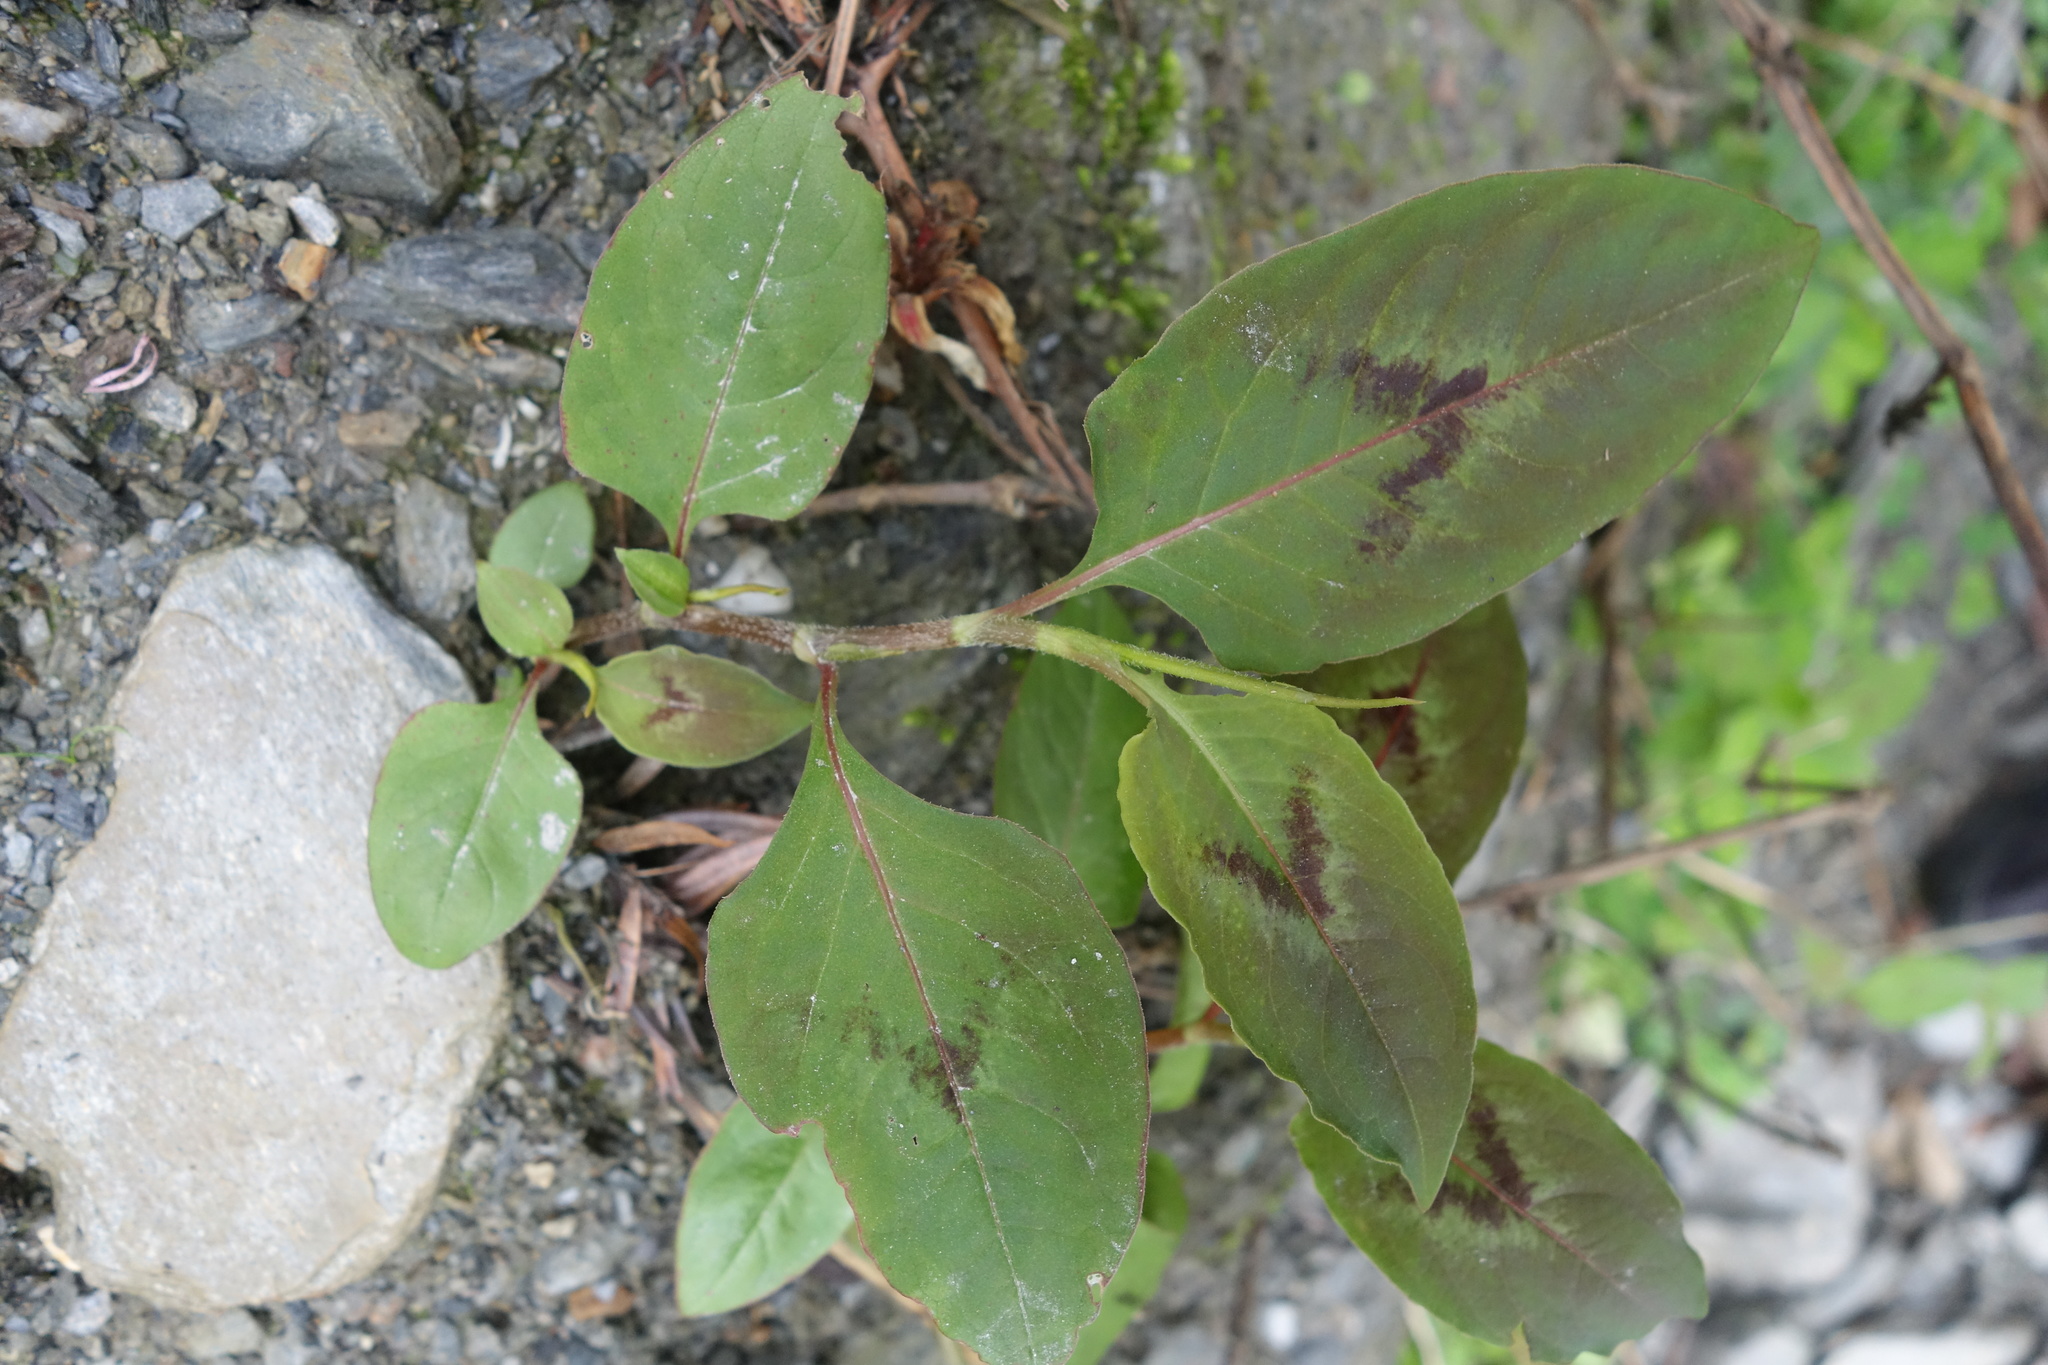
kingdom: Plantae
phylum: Tracheophyta
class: Magnoliopsida
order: Caryophyllales
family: Polygonaceae
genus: Persicaria
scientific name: Persicaria chinensis
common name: Chinese knotweed
